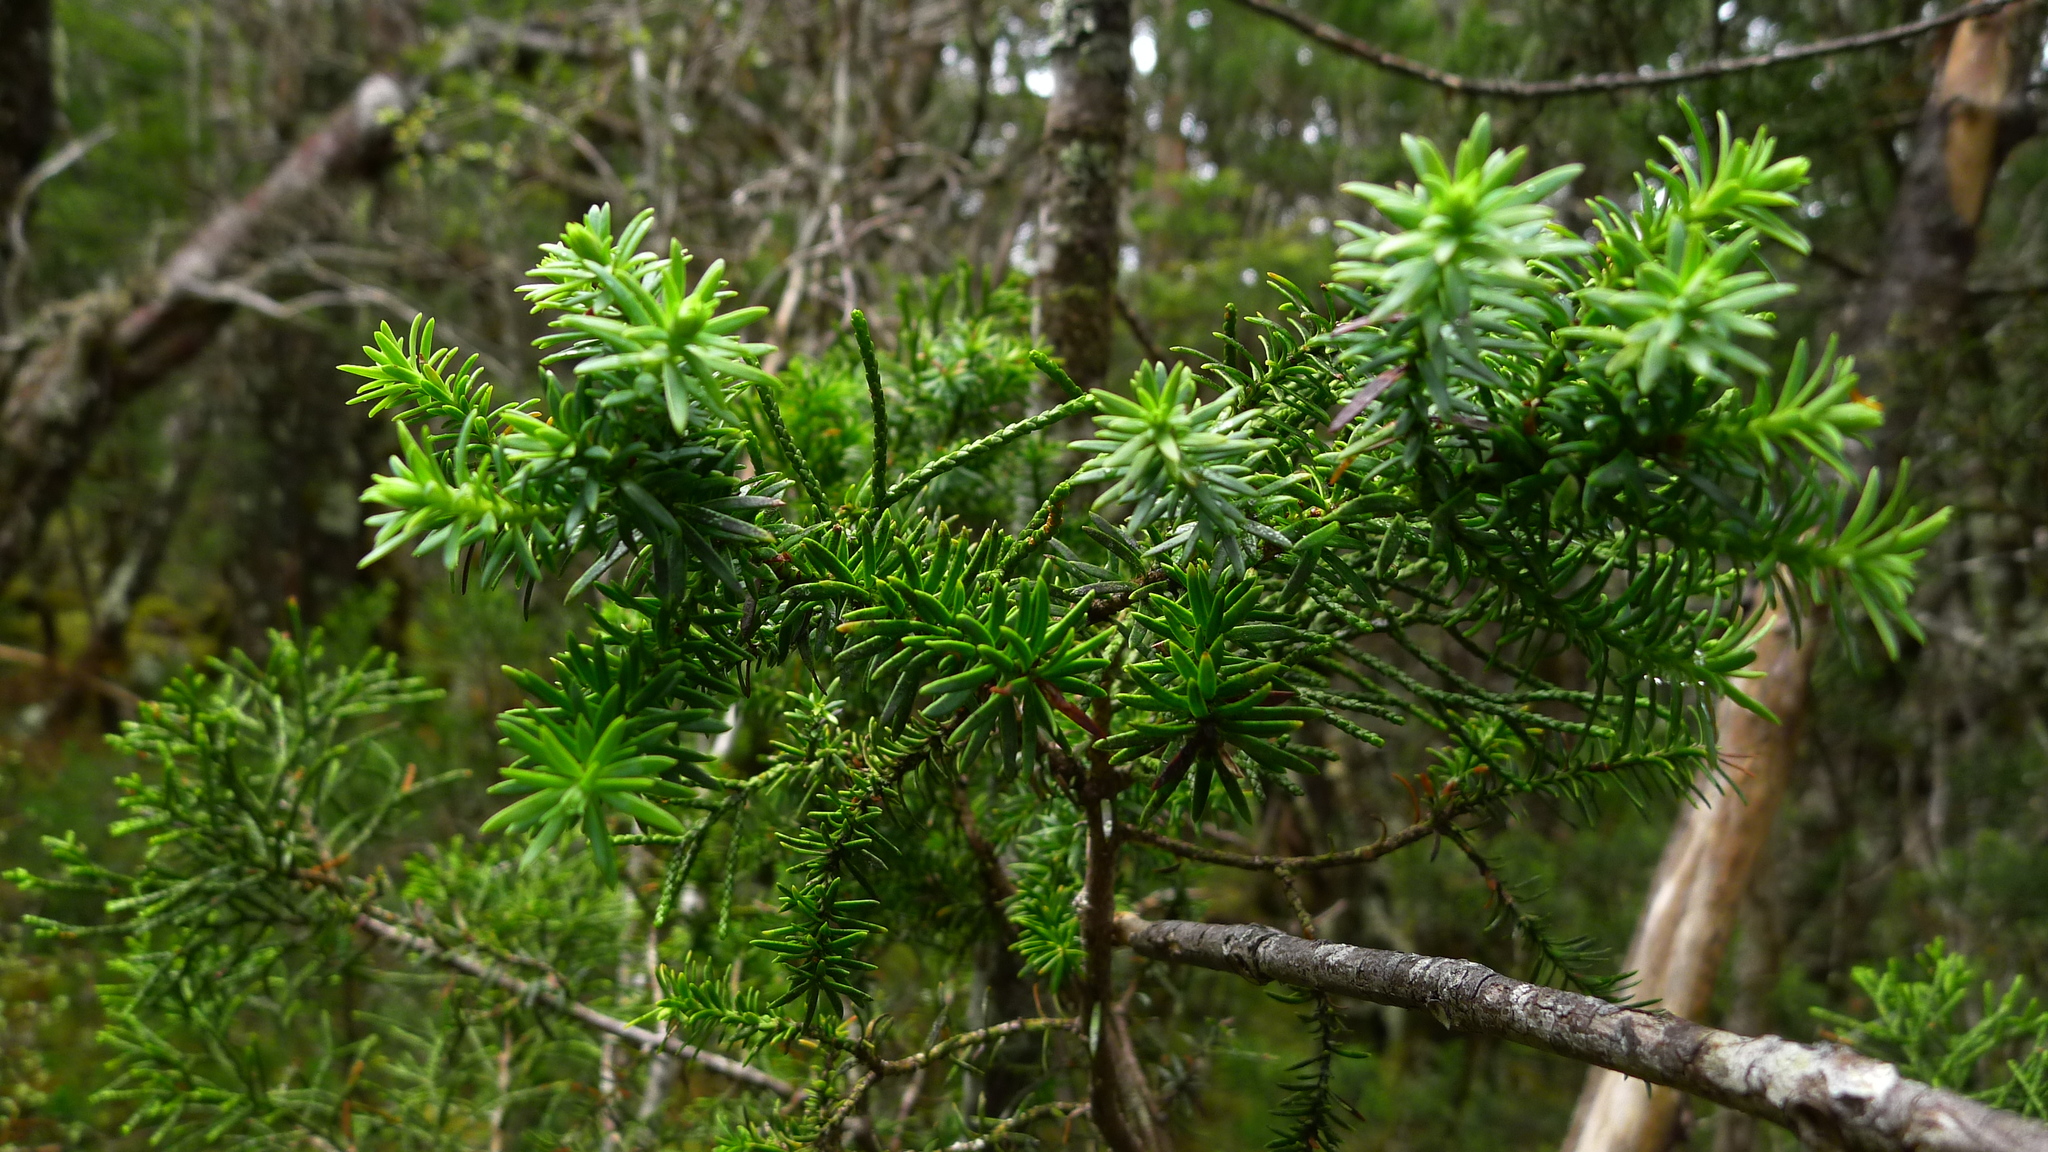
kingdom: Plantae
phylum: Tracheophyta
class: Pinopsida
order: Pinales
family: Podocarpaceae
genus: Halocarpus
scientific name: Halocarpus biformis
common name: Alpine tarwood
